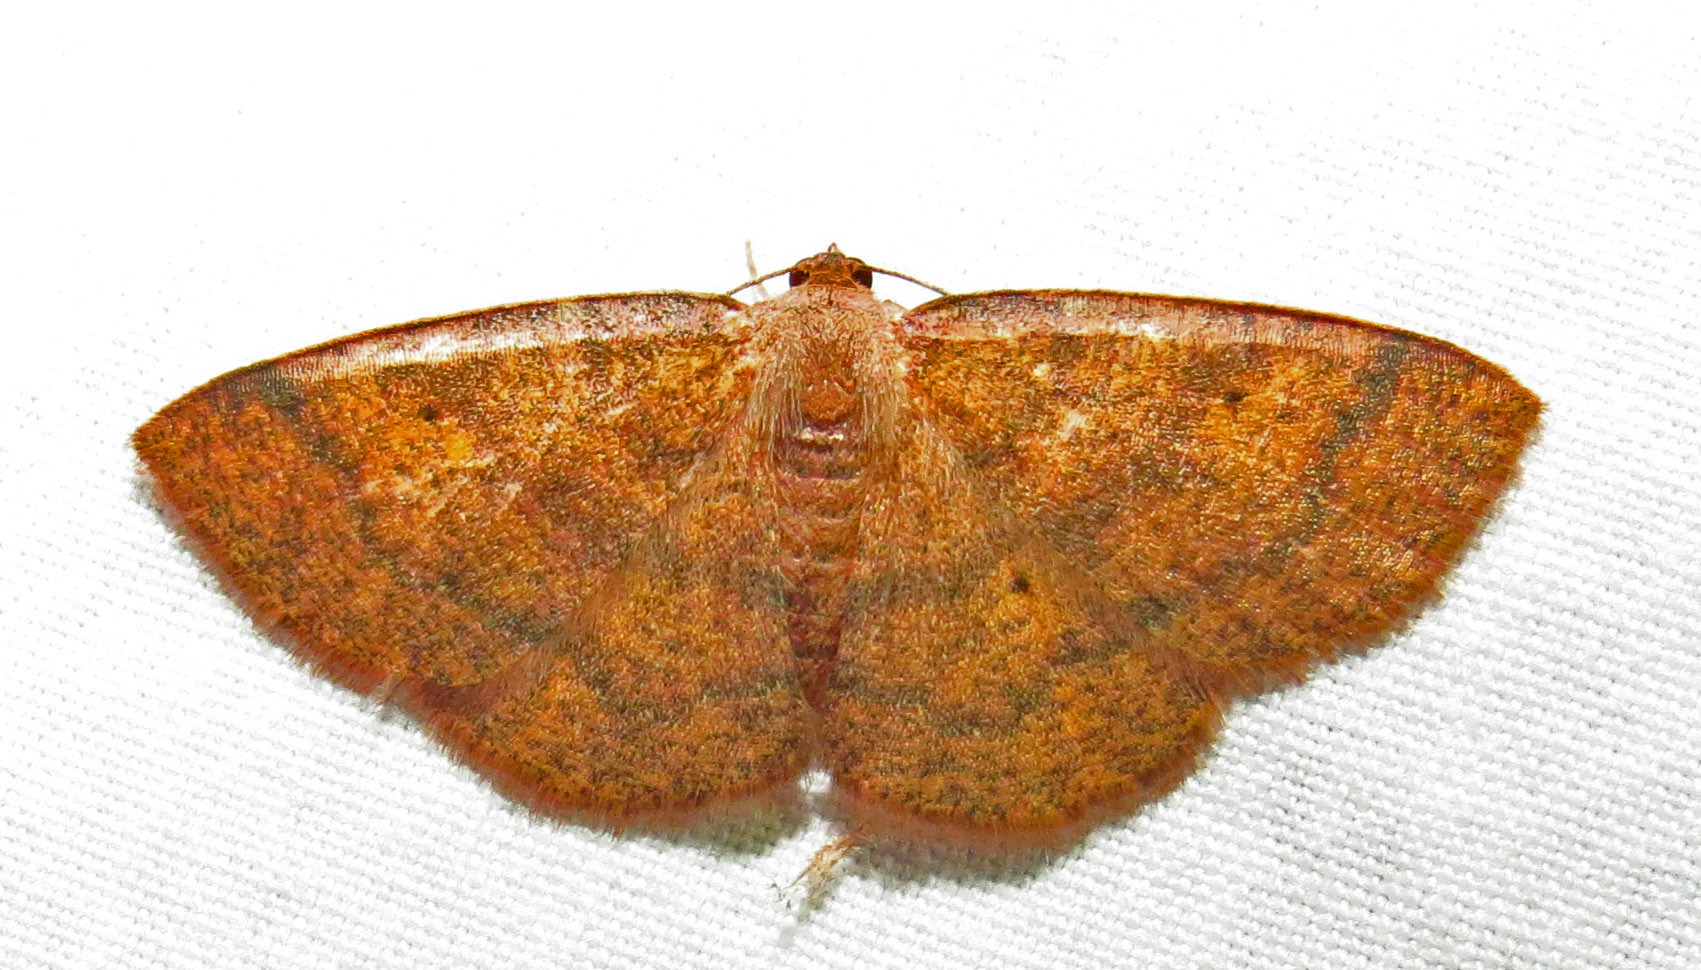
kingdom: Animalia
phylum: Arthropoda
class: Insecta
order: Lepidoptera
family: Geometridae
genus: Ilexia
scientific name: Ilexia intractata
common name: Black-dotted ruddy moth
